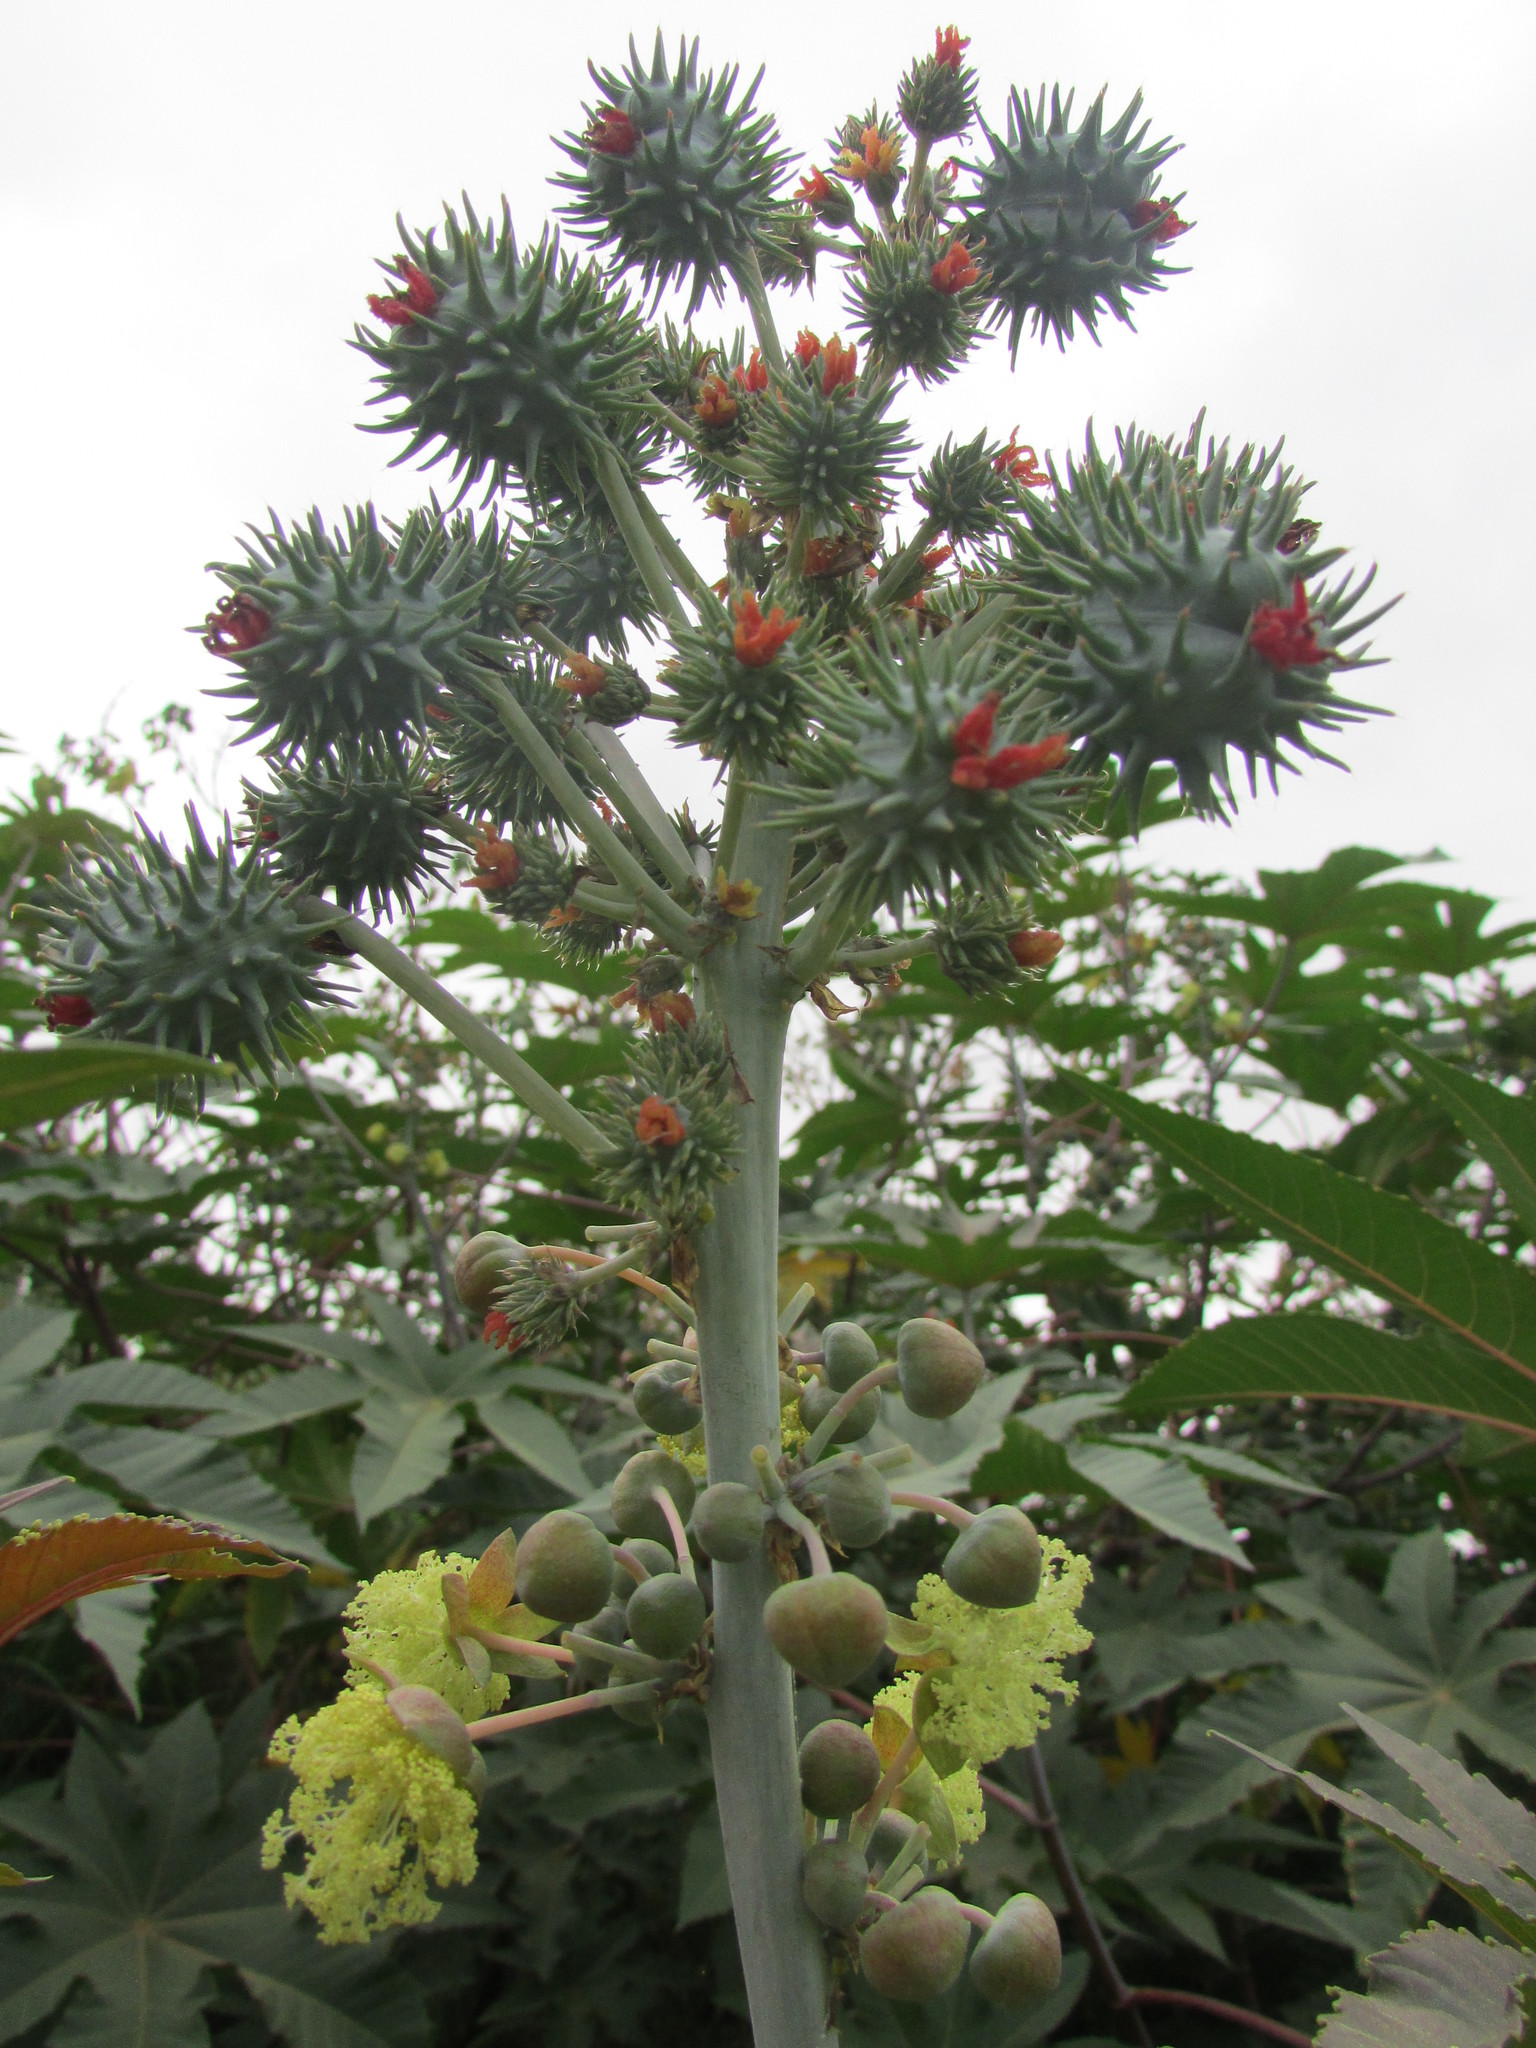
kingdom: Plantae
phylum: Tracheophyta
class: Magnoliopsida
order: Malpighiales
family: Euphorbiaceae
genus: Ricinus
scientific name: Ricinus communis
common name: Castor-oil-plant
